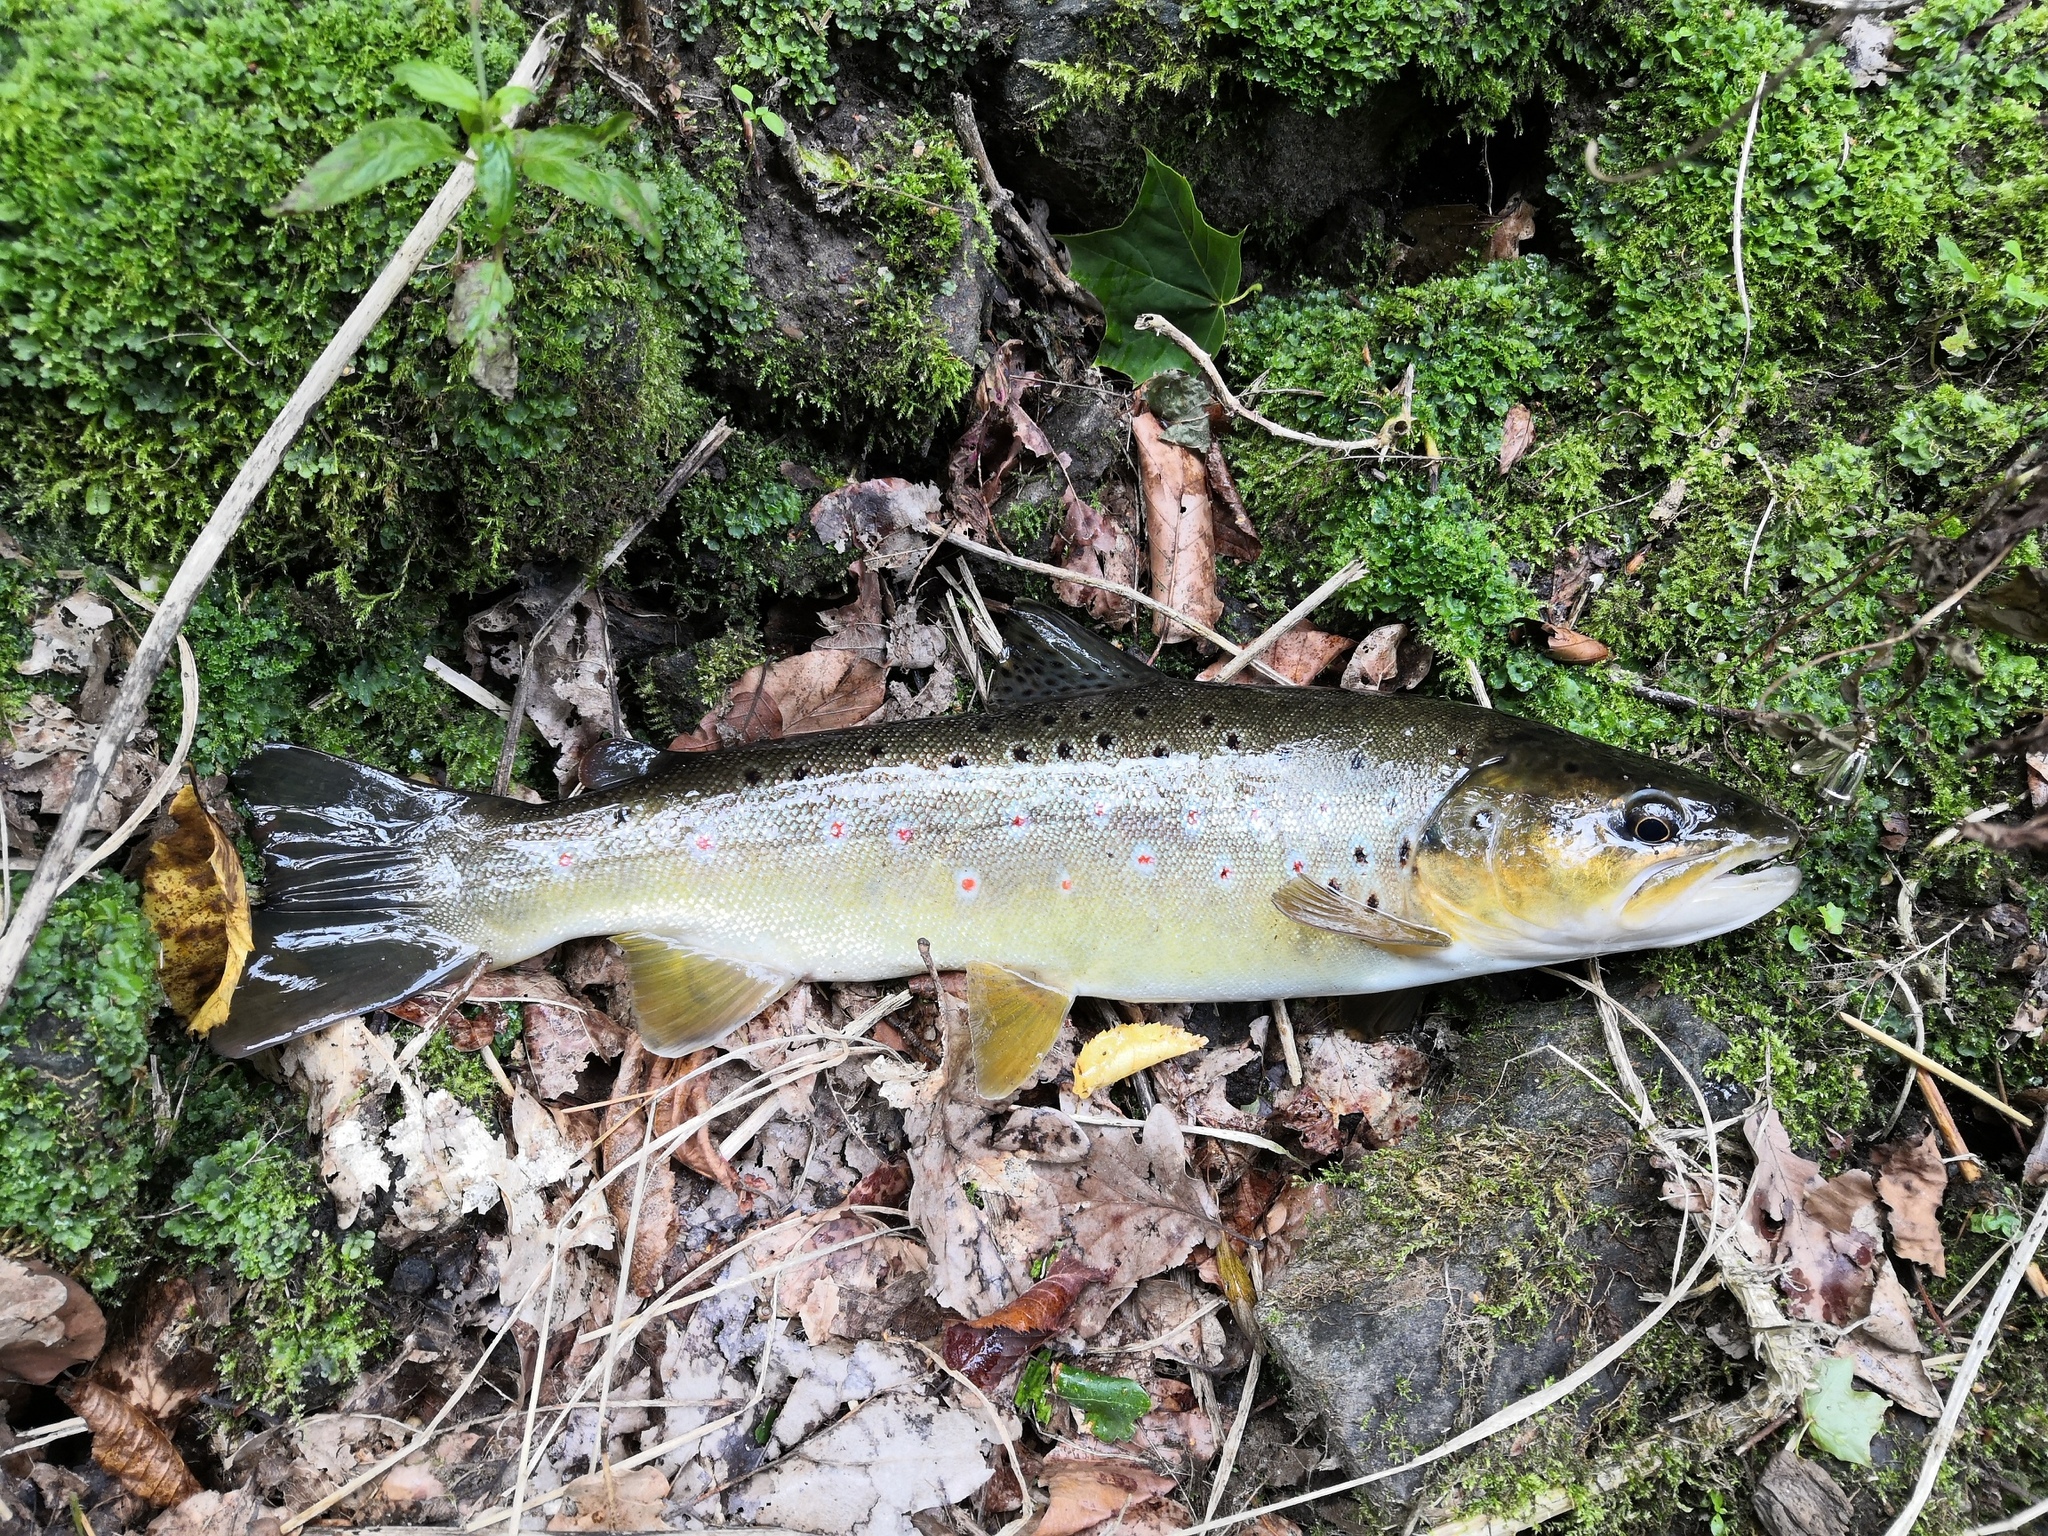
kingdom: Animalia
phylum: Chordata
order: Salmoniformes
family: Salmonidae
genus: Salmo
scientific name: Salmo trutta
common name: Brown trout
